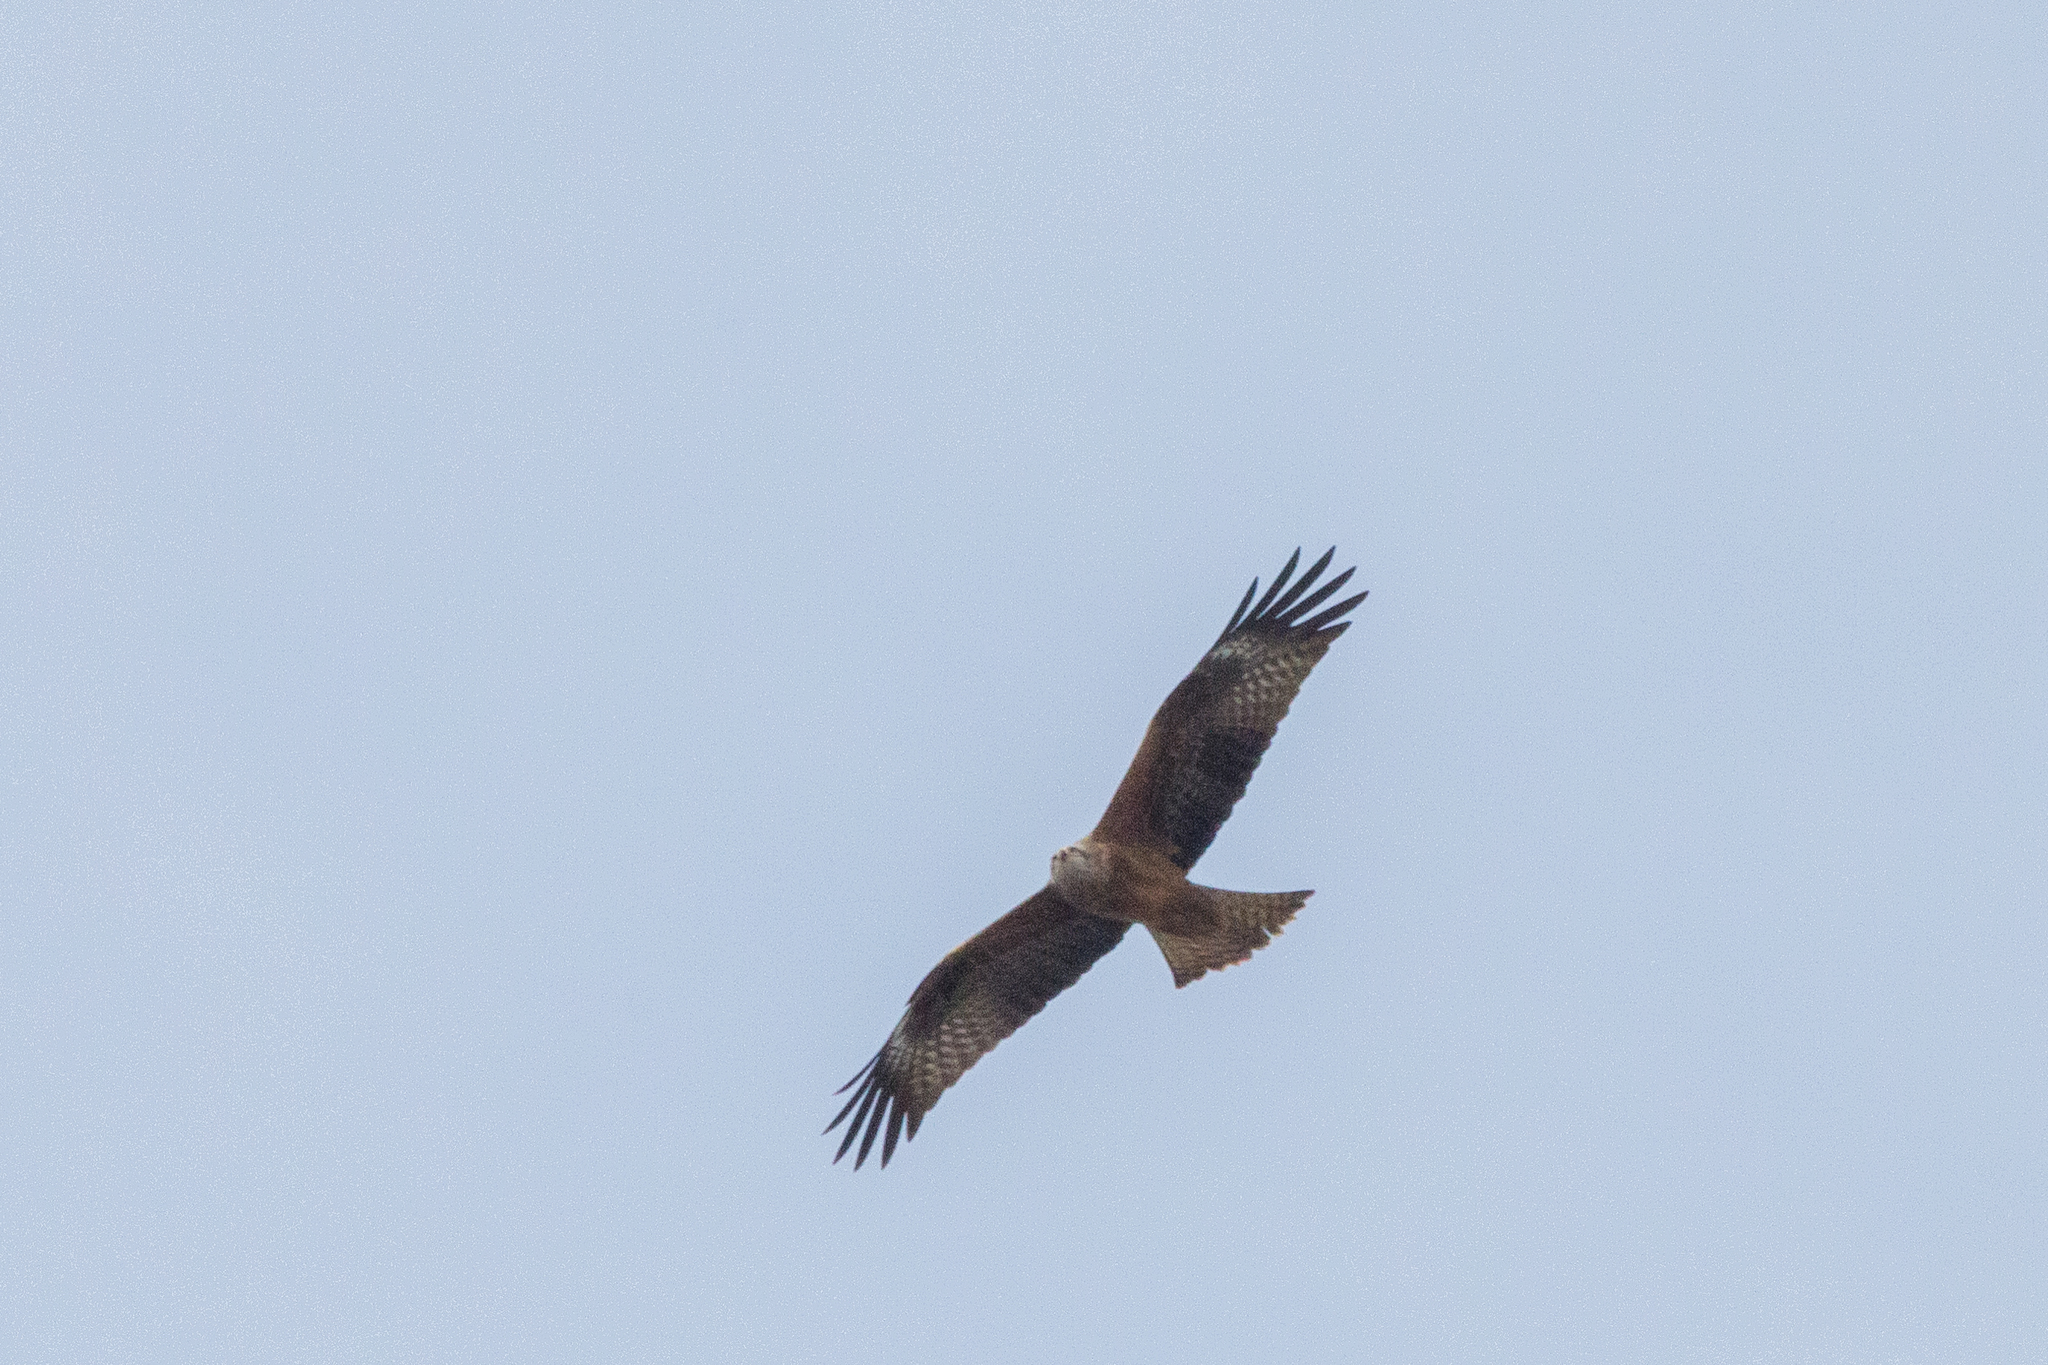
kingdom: Animalia
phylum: Chordata
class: Aves
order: Accipitriformes
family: Accipitridae
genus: Milvus
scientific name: Milvus migrans
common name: Black kite
